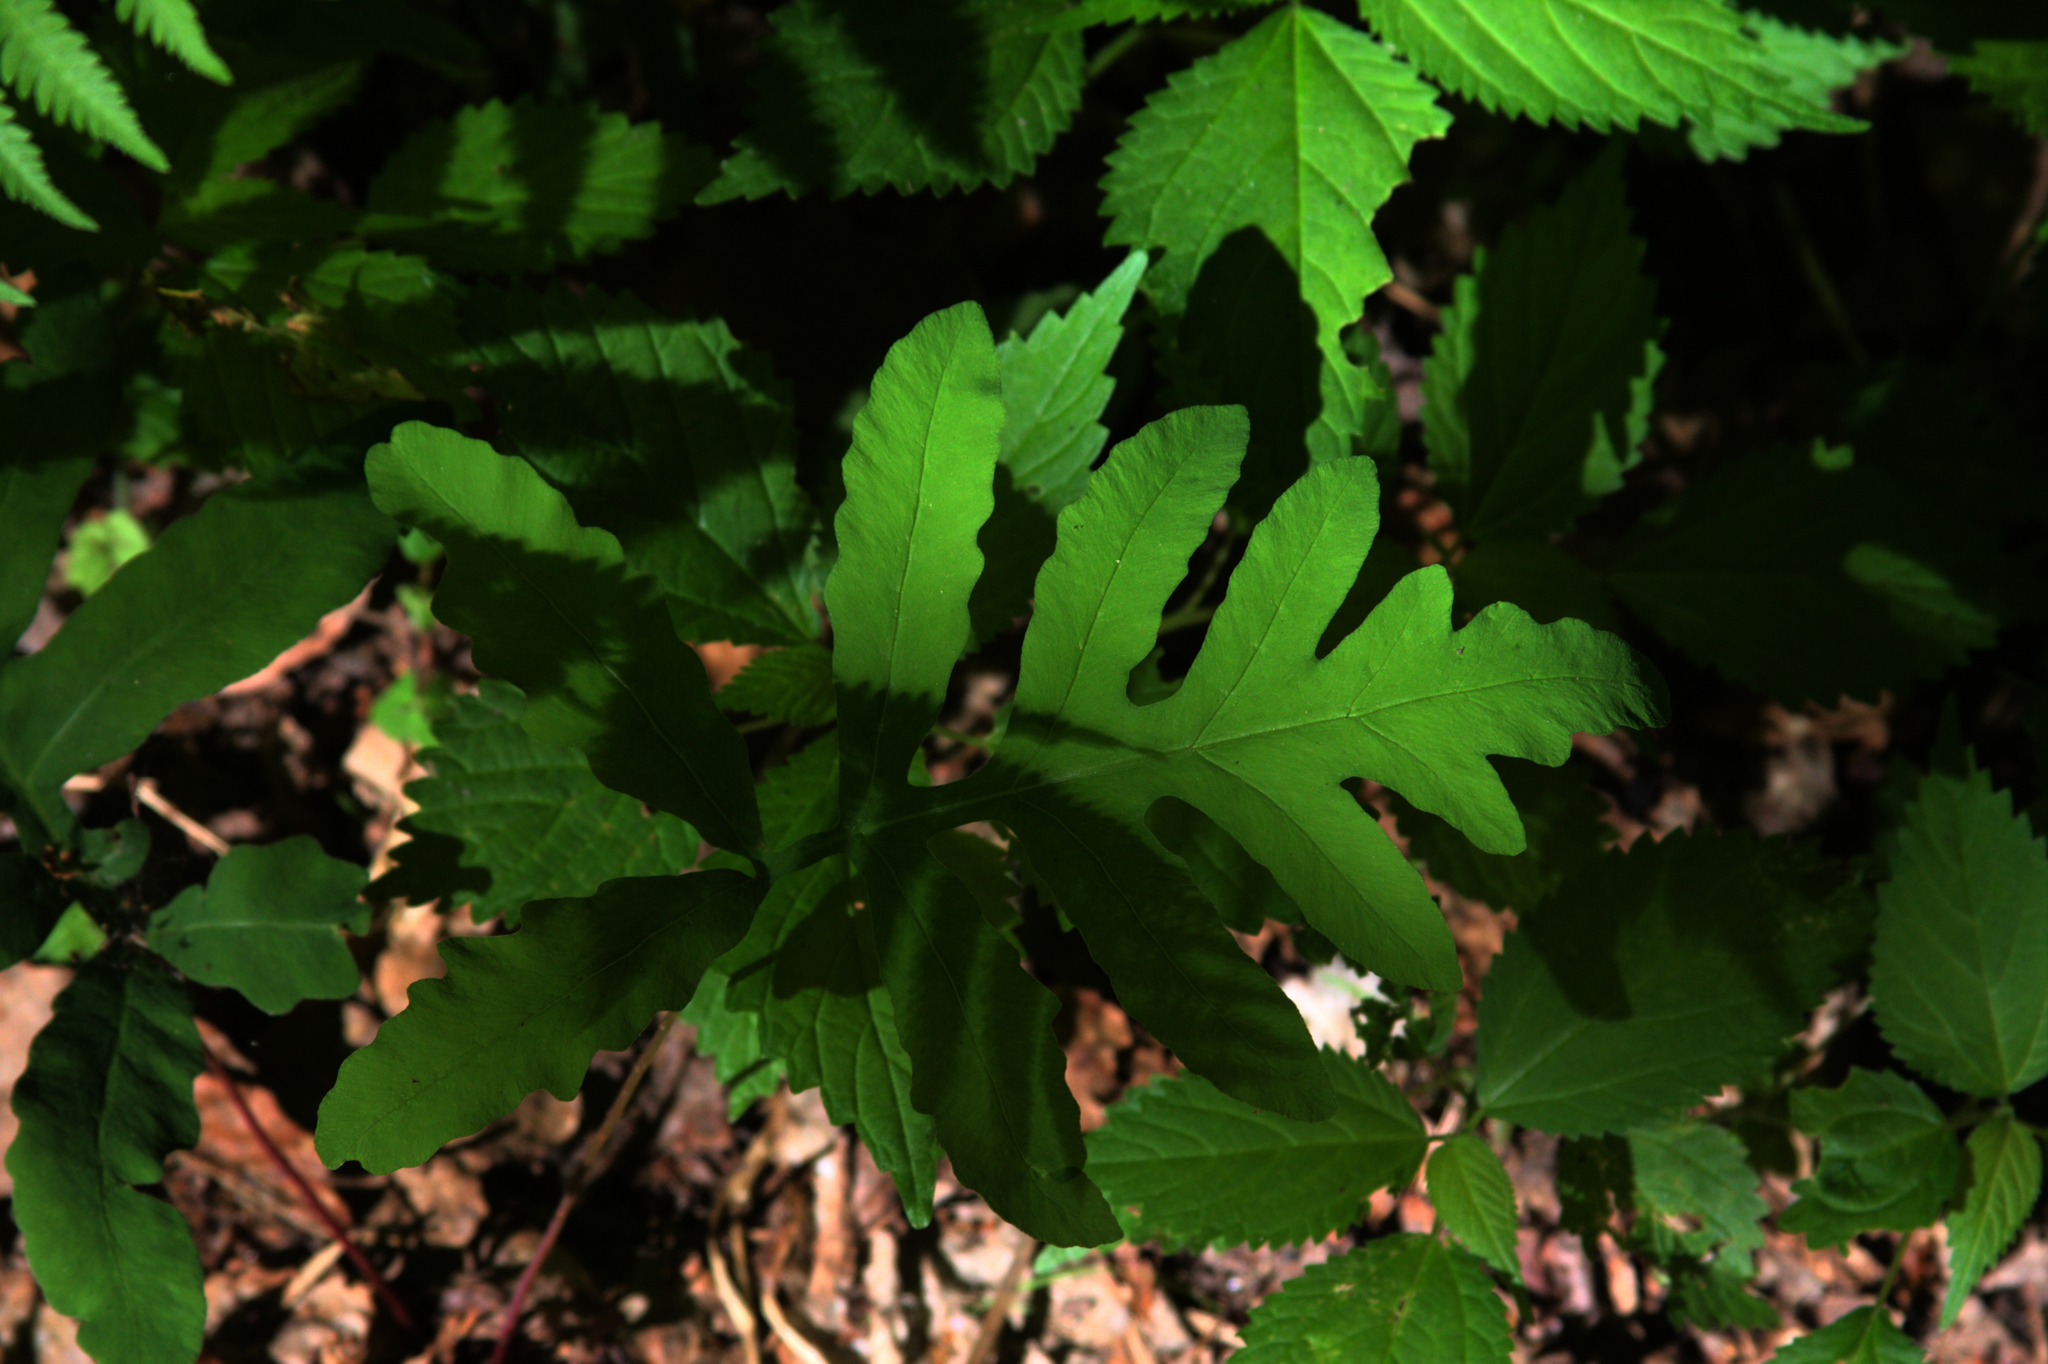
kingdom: Plantae
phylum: Tracheophyta
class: Polypodiopsida
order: Polypodiales
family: Onocleaceae
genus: Onoclea
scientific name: Onoclea sensibilis
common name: Sensitive fern
